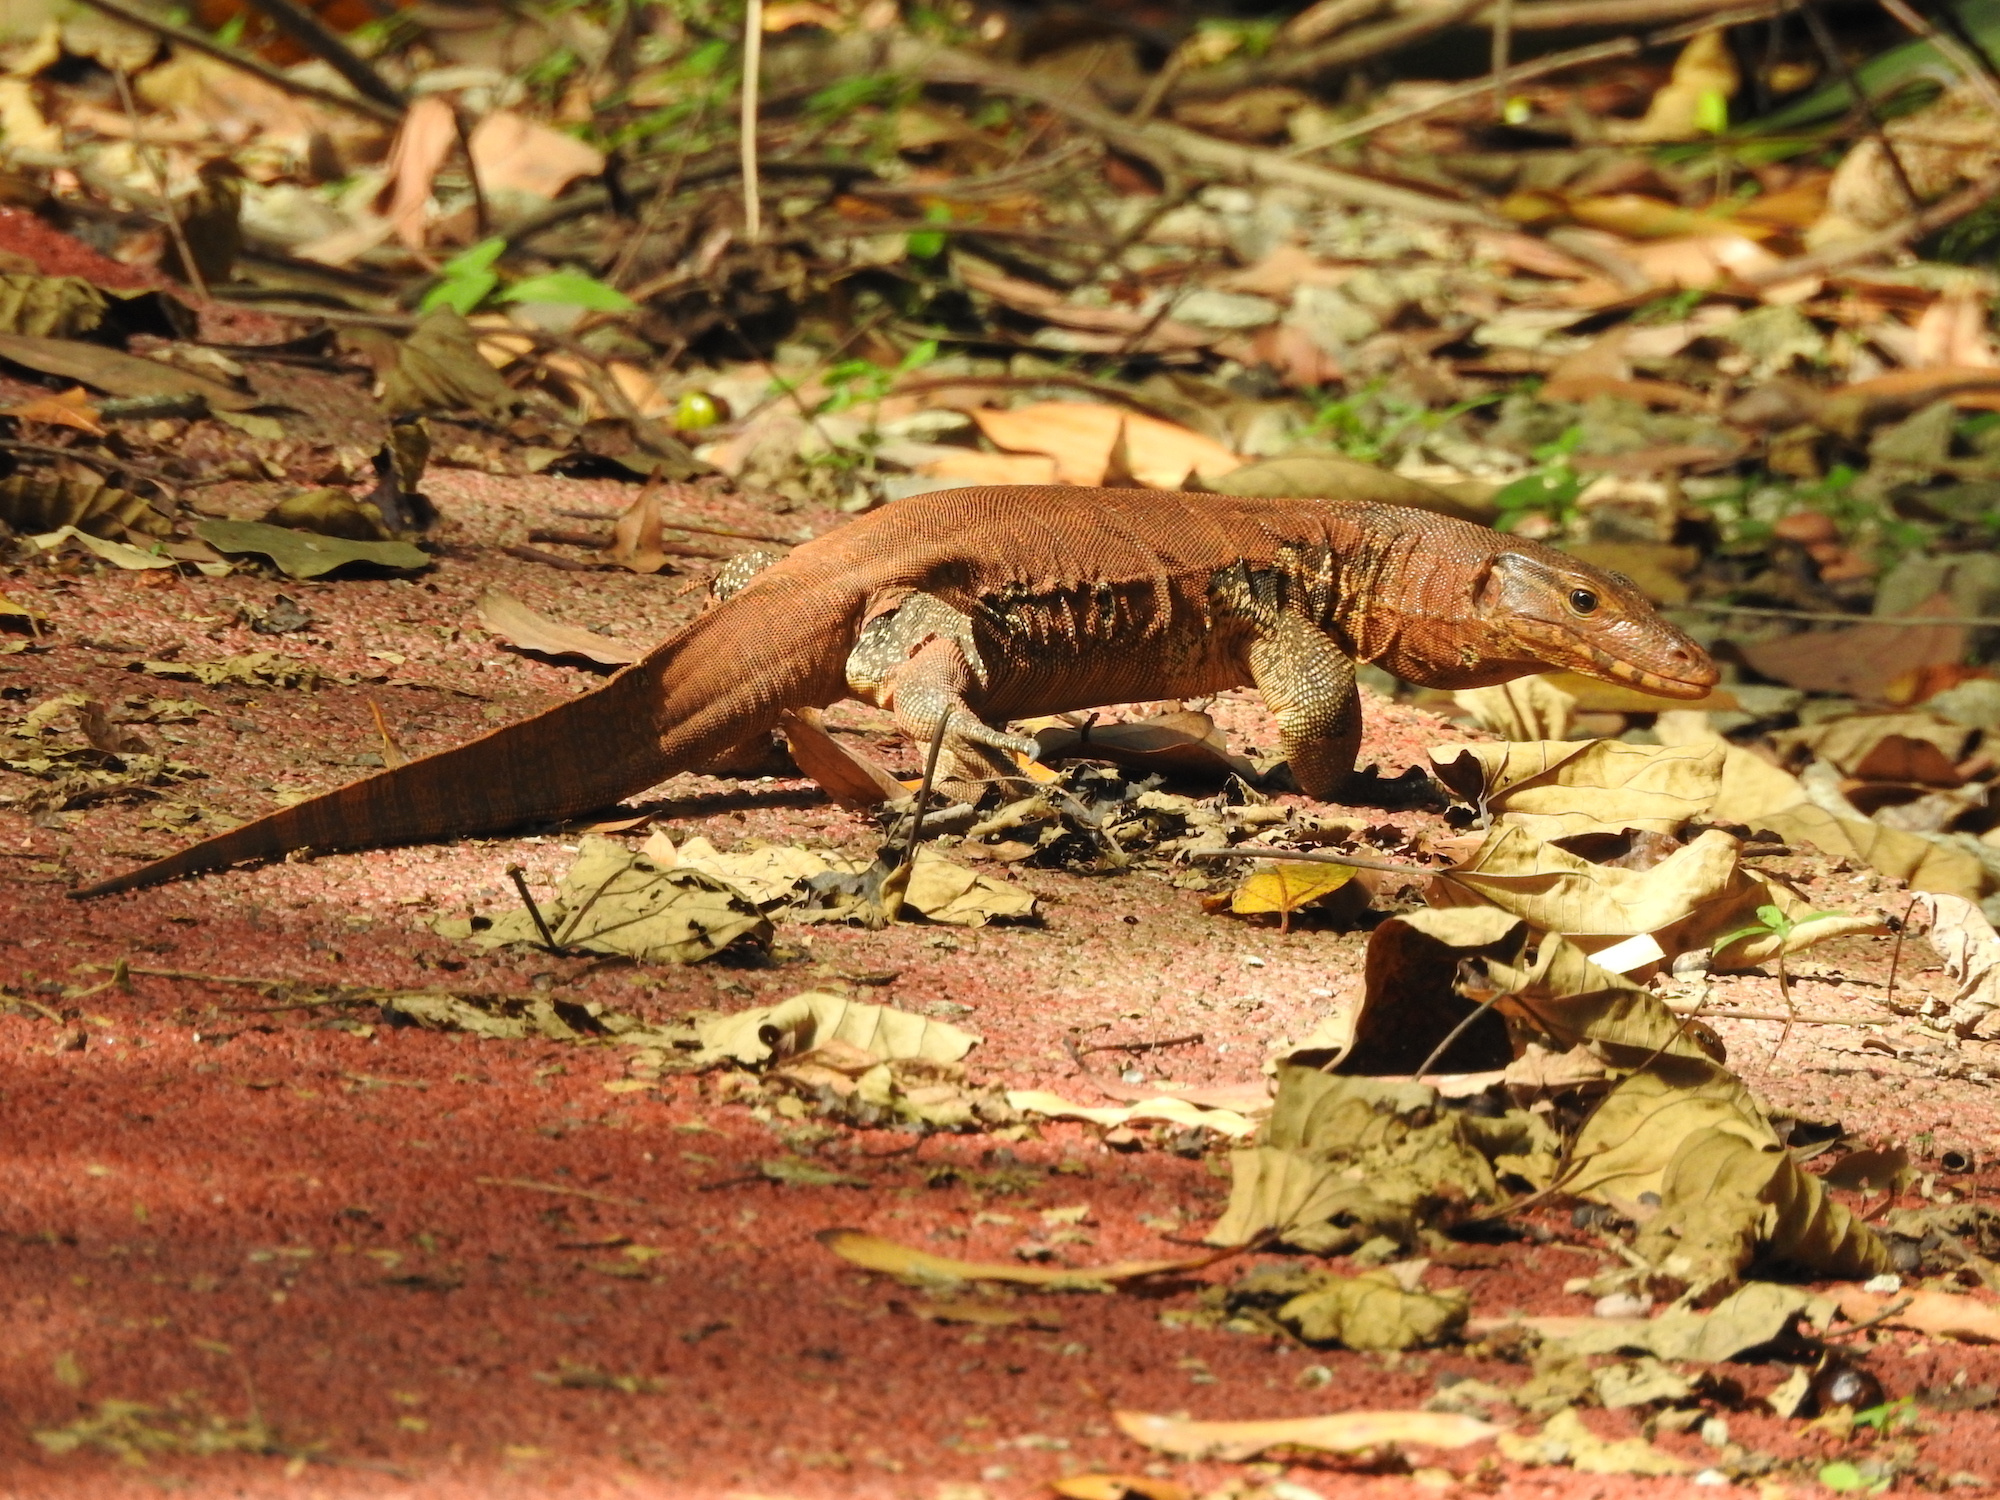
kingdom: Animalia
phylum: Chordata
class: Squamata
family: Varanidae
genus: Varanus
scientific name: Varanus salvator
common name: Common water monitor
